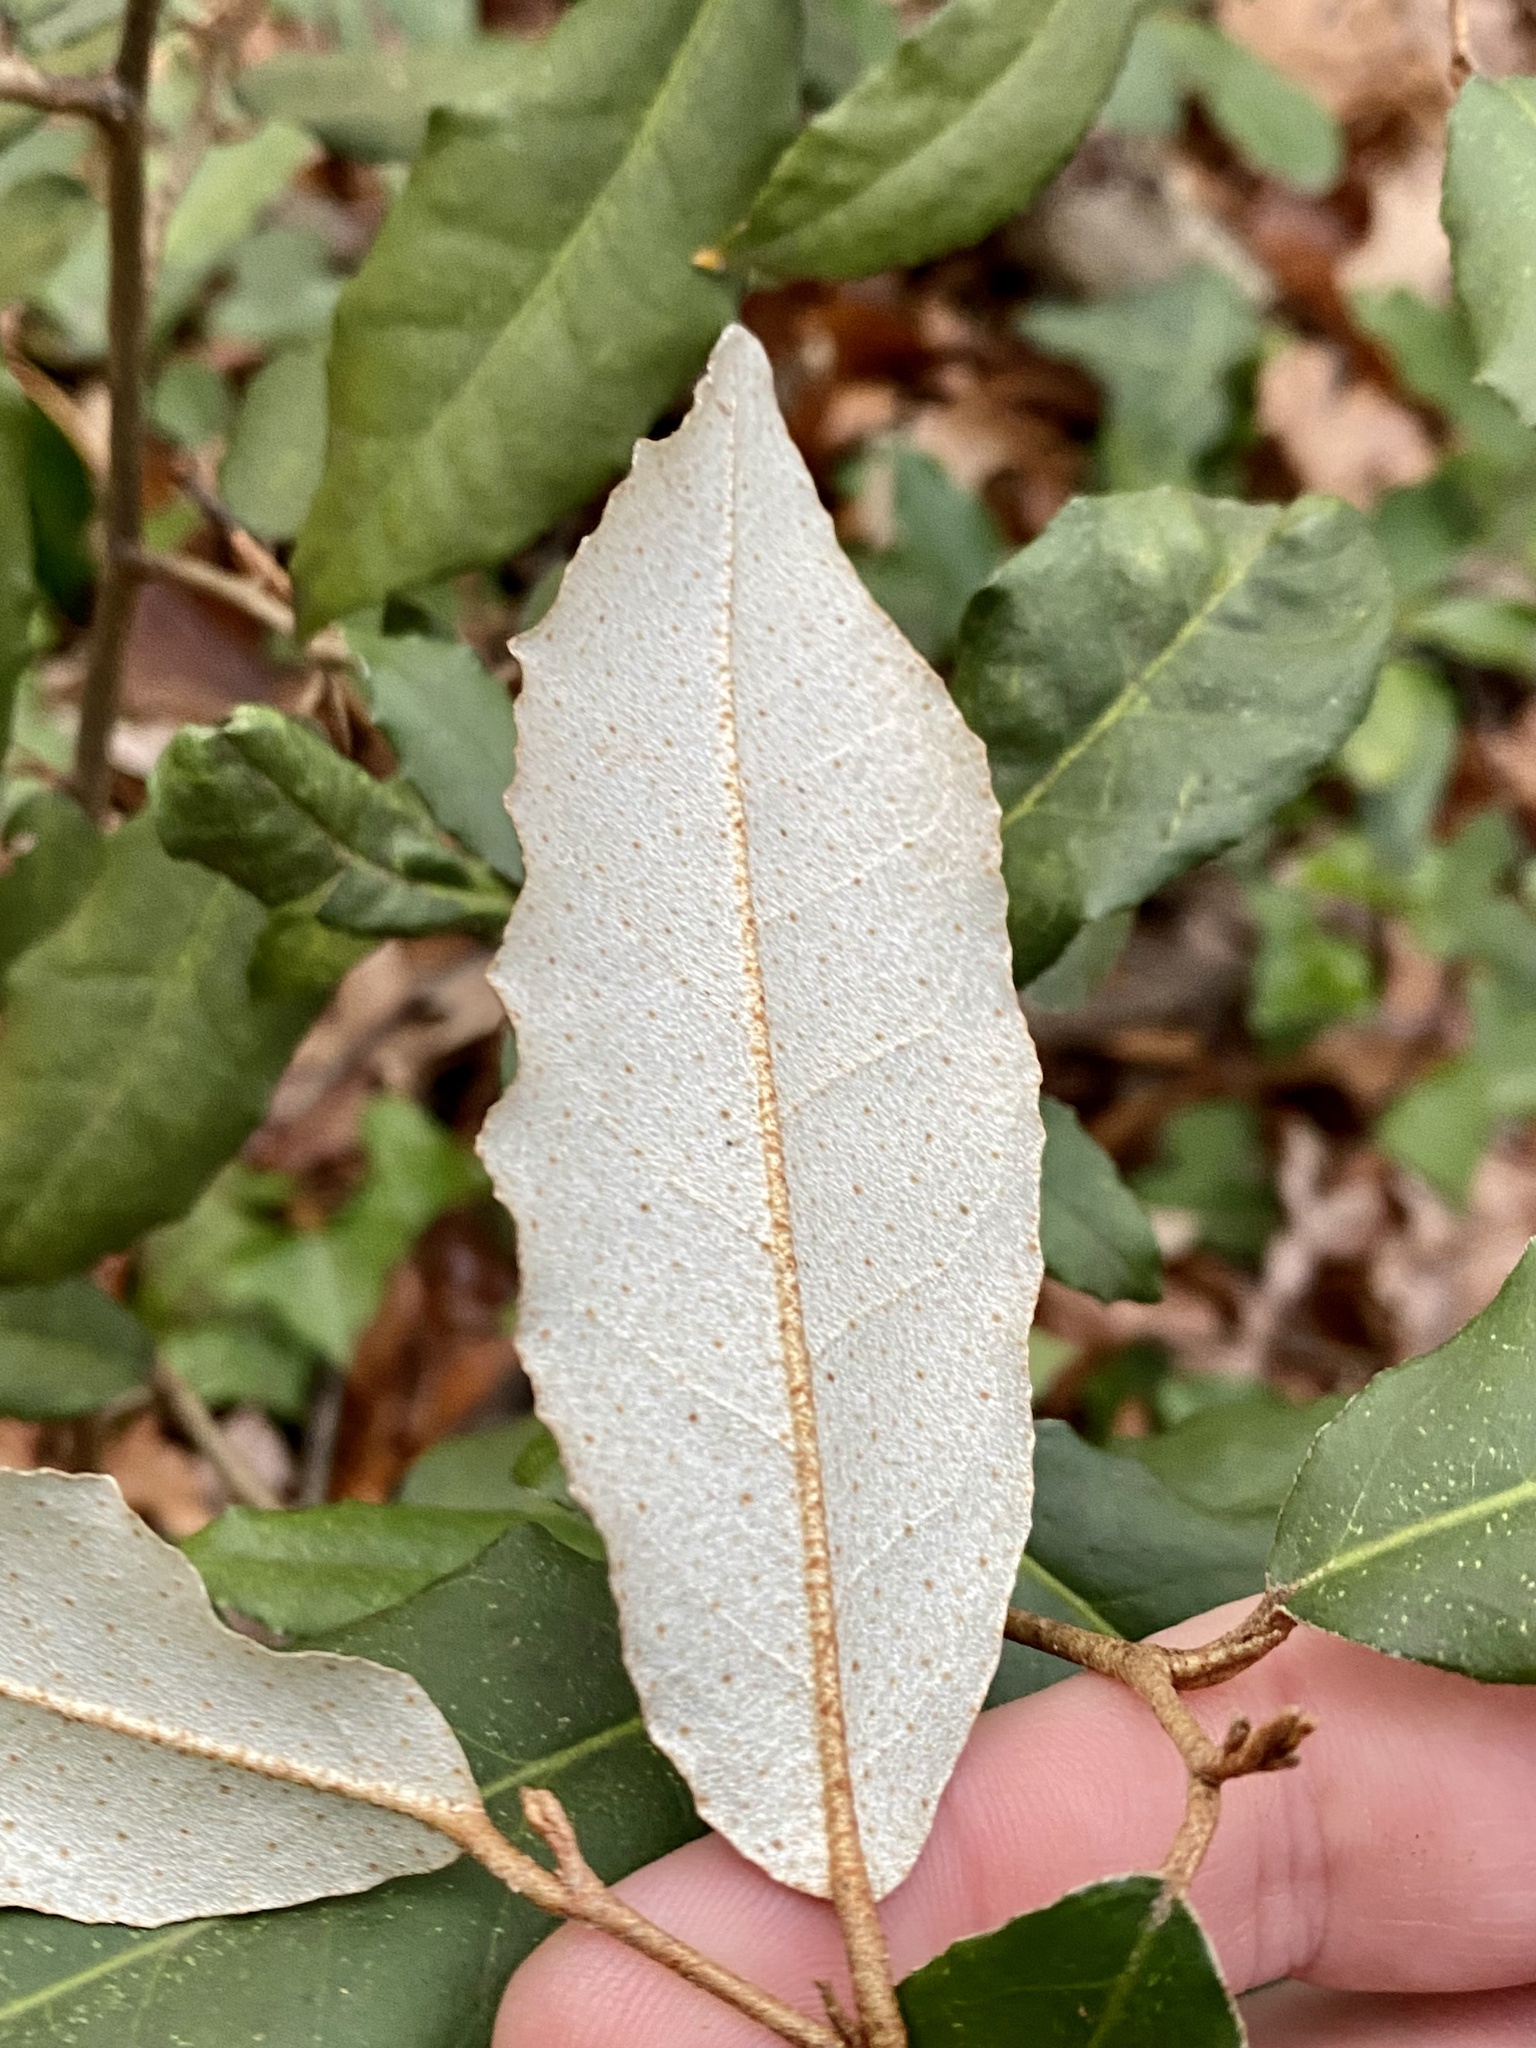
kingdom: Plantae
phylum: Tracheophyta
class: Magnoliopsida
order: Rosales
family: Elaeagnaceae
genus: Elaeagnus
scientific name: Elaeagnus pungens
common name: Spiny oleaster
